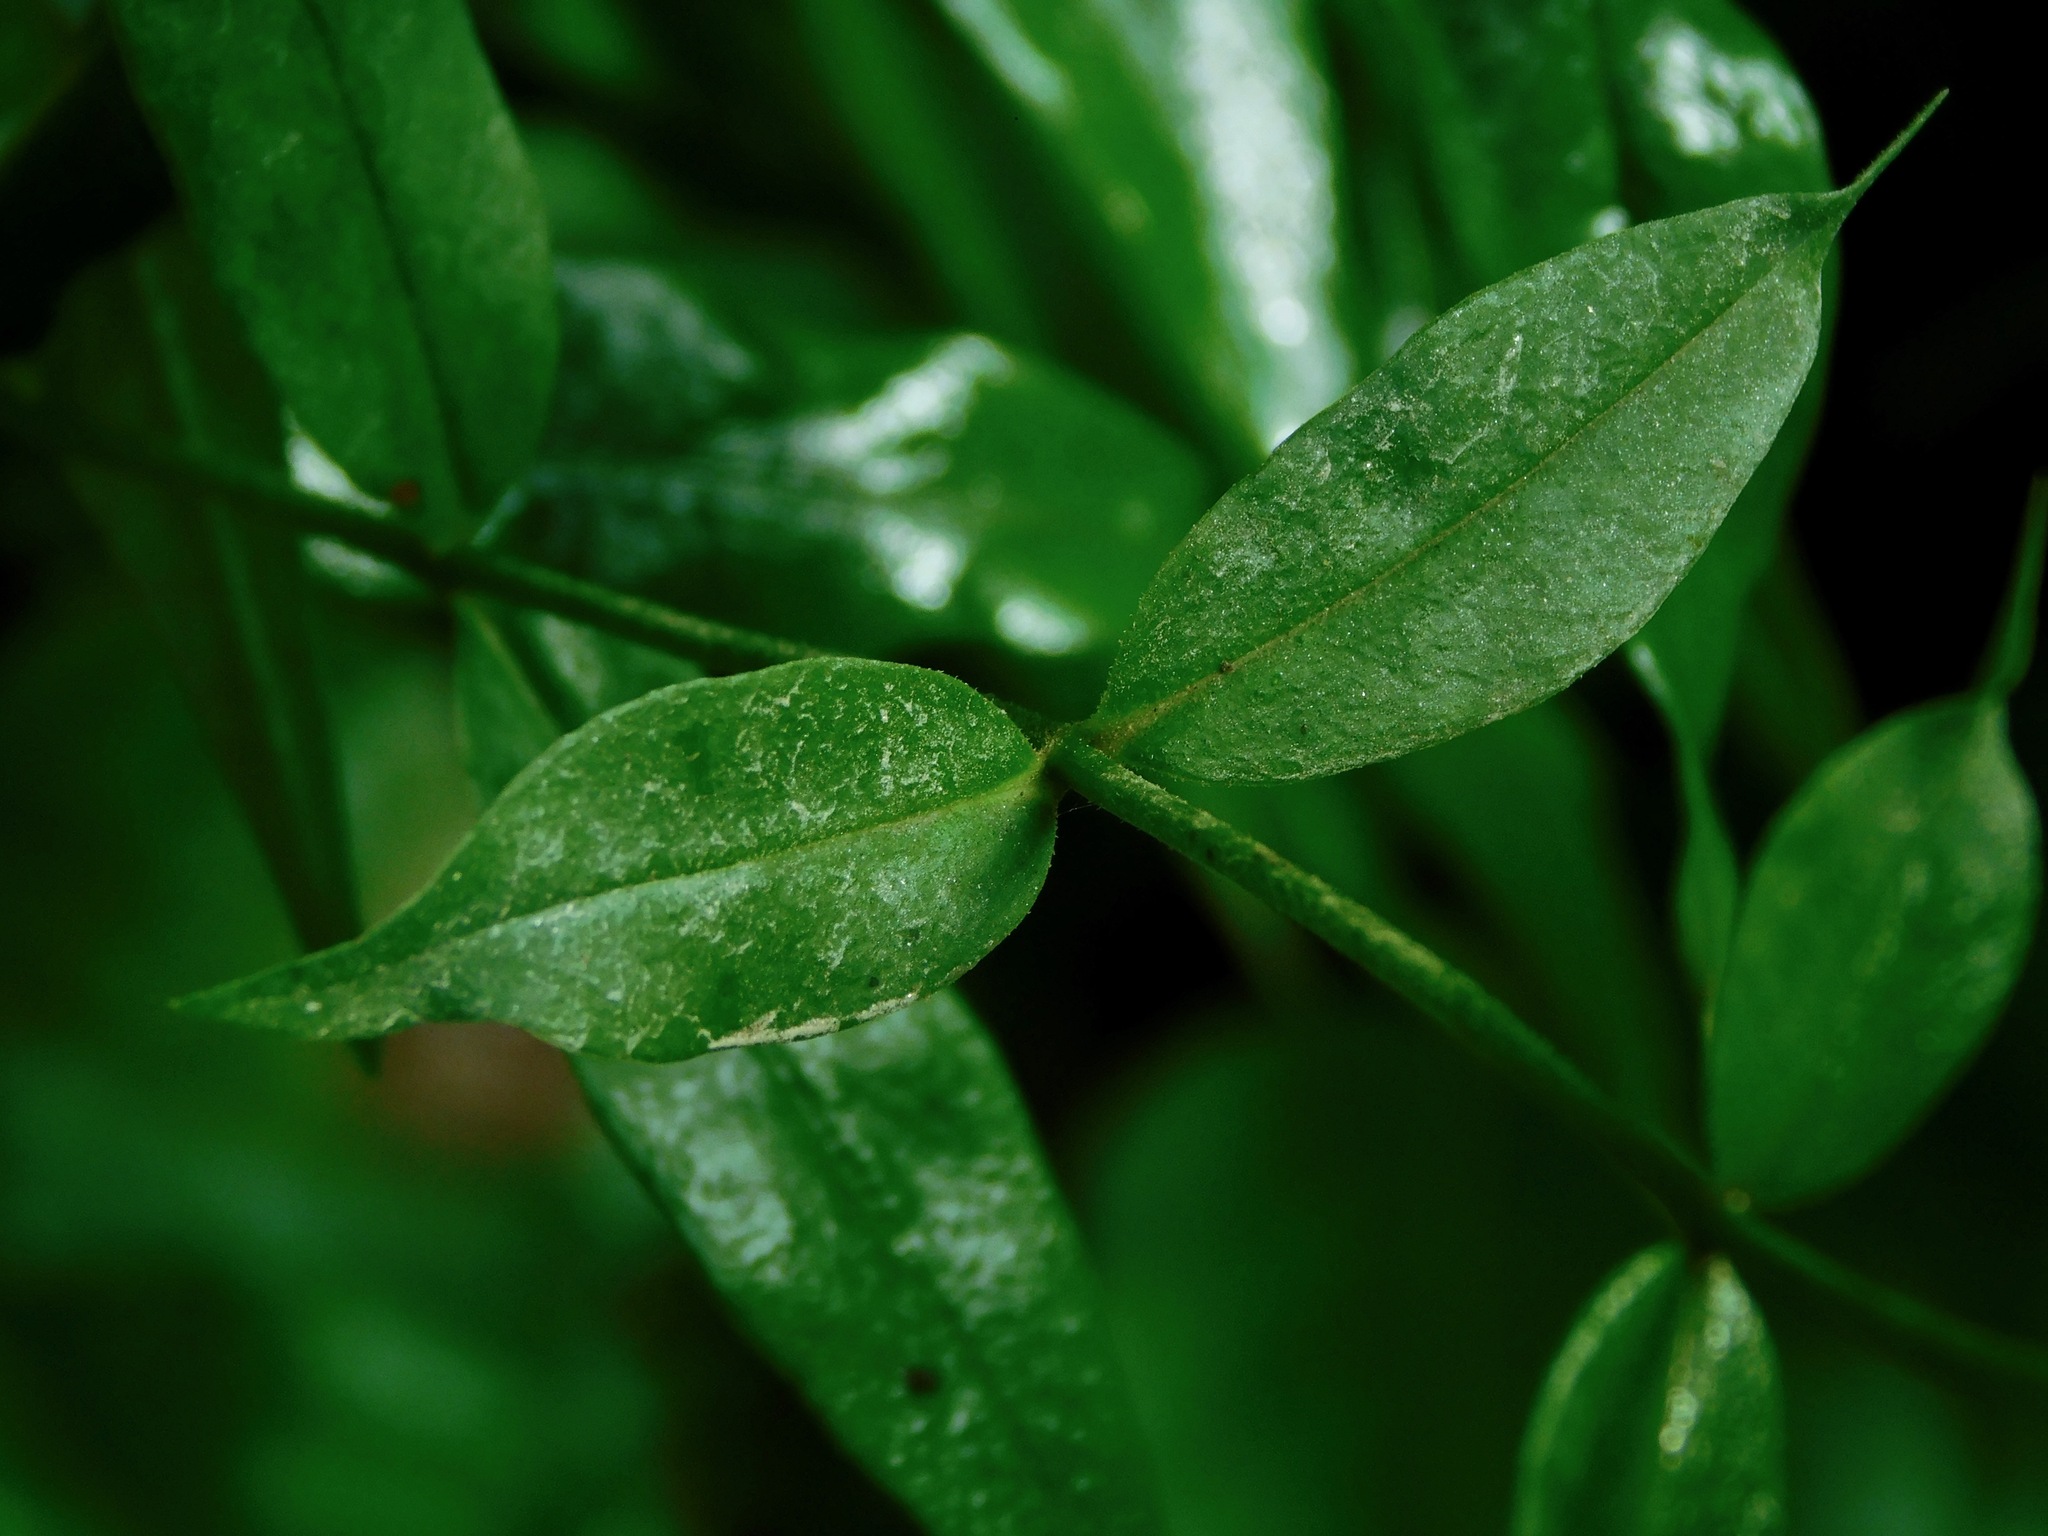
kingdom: Plantae
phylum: Tracheophyta
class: Magnoliopsida
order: Ericales
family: Polemoniaceae
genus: Phlox
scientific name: Phlox carolina
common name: Thick-leaf phlox
